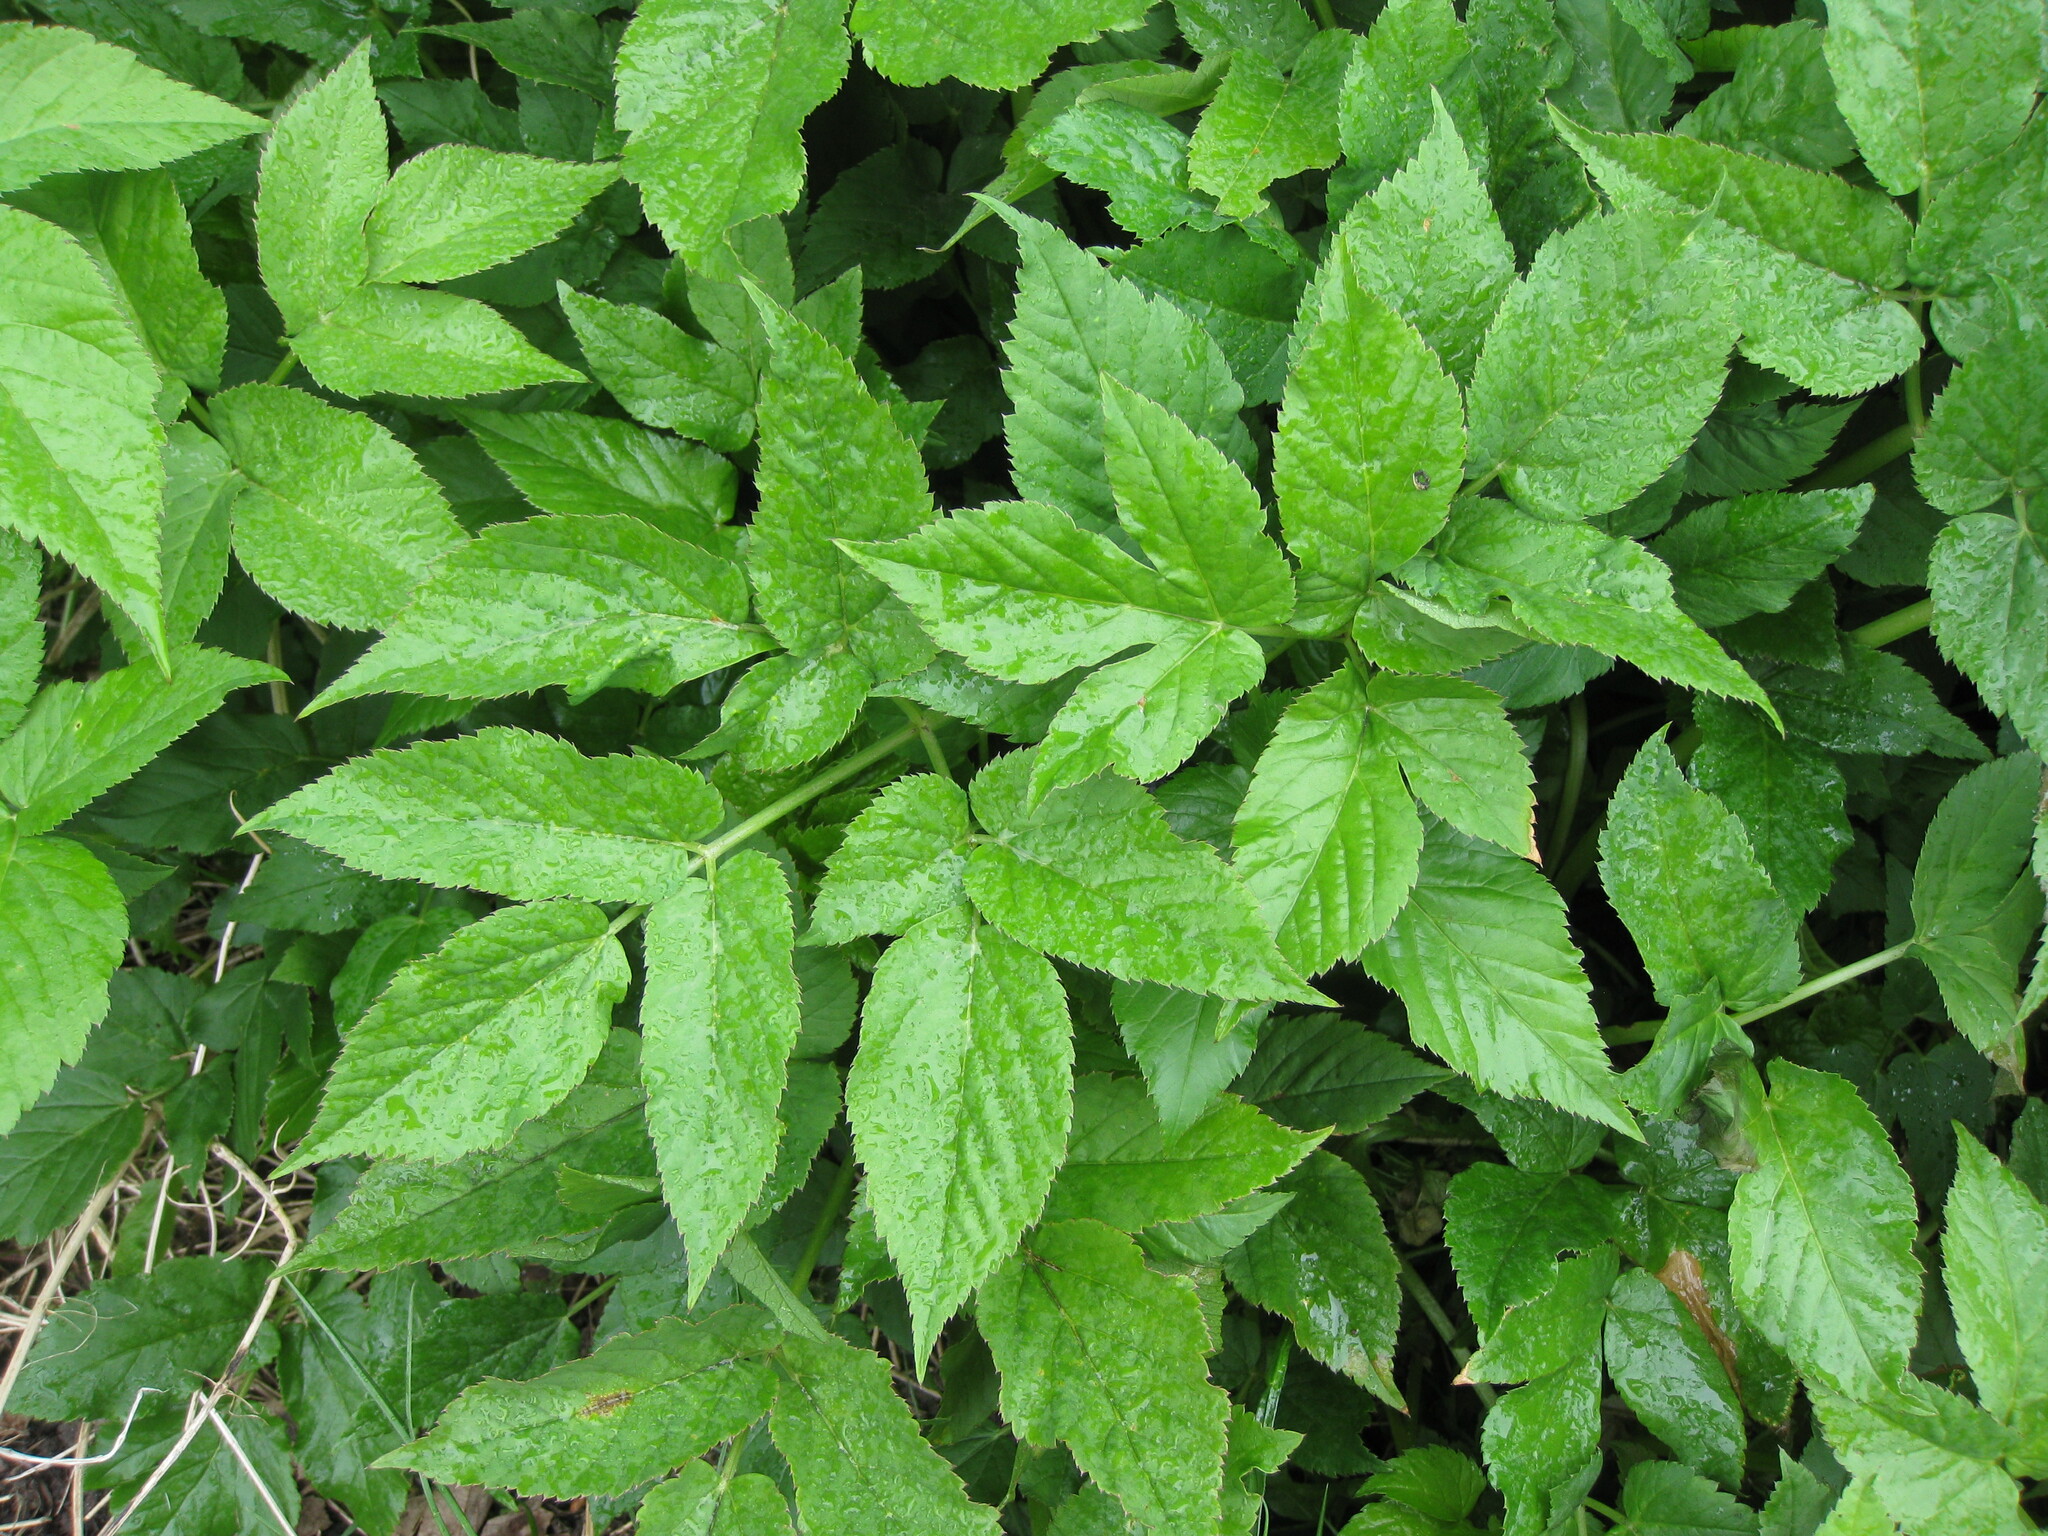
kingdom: Plantae
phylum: Tracheophyta
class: Magnoliopsida
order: Apiales
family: Apiaceae
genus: Aegopodium
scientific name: Aegopodium podagraria
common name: Ground-elder
